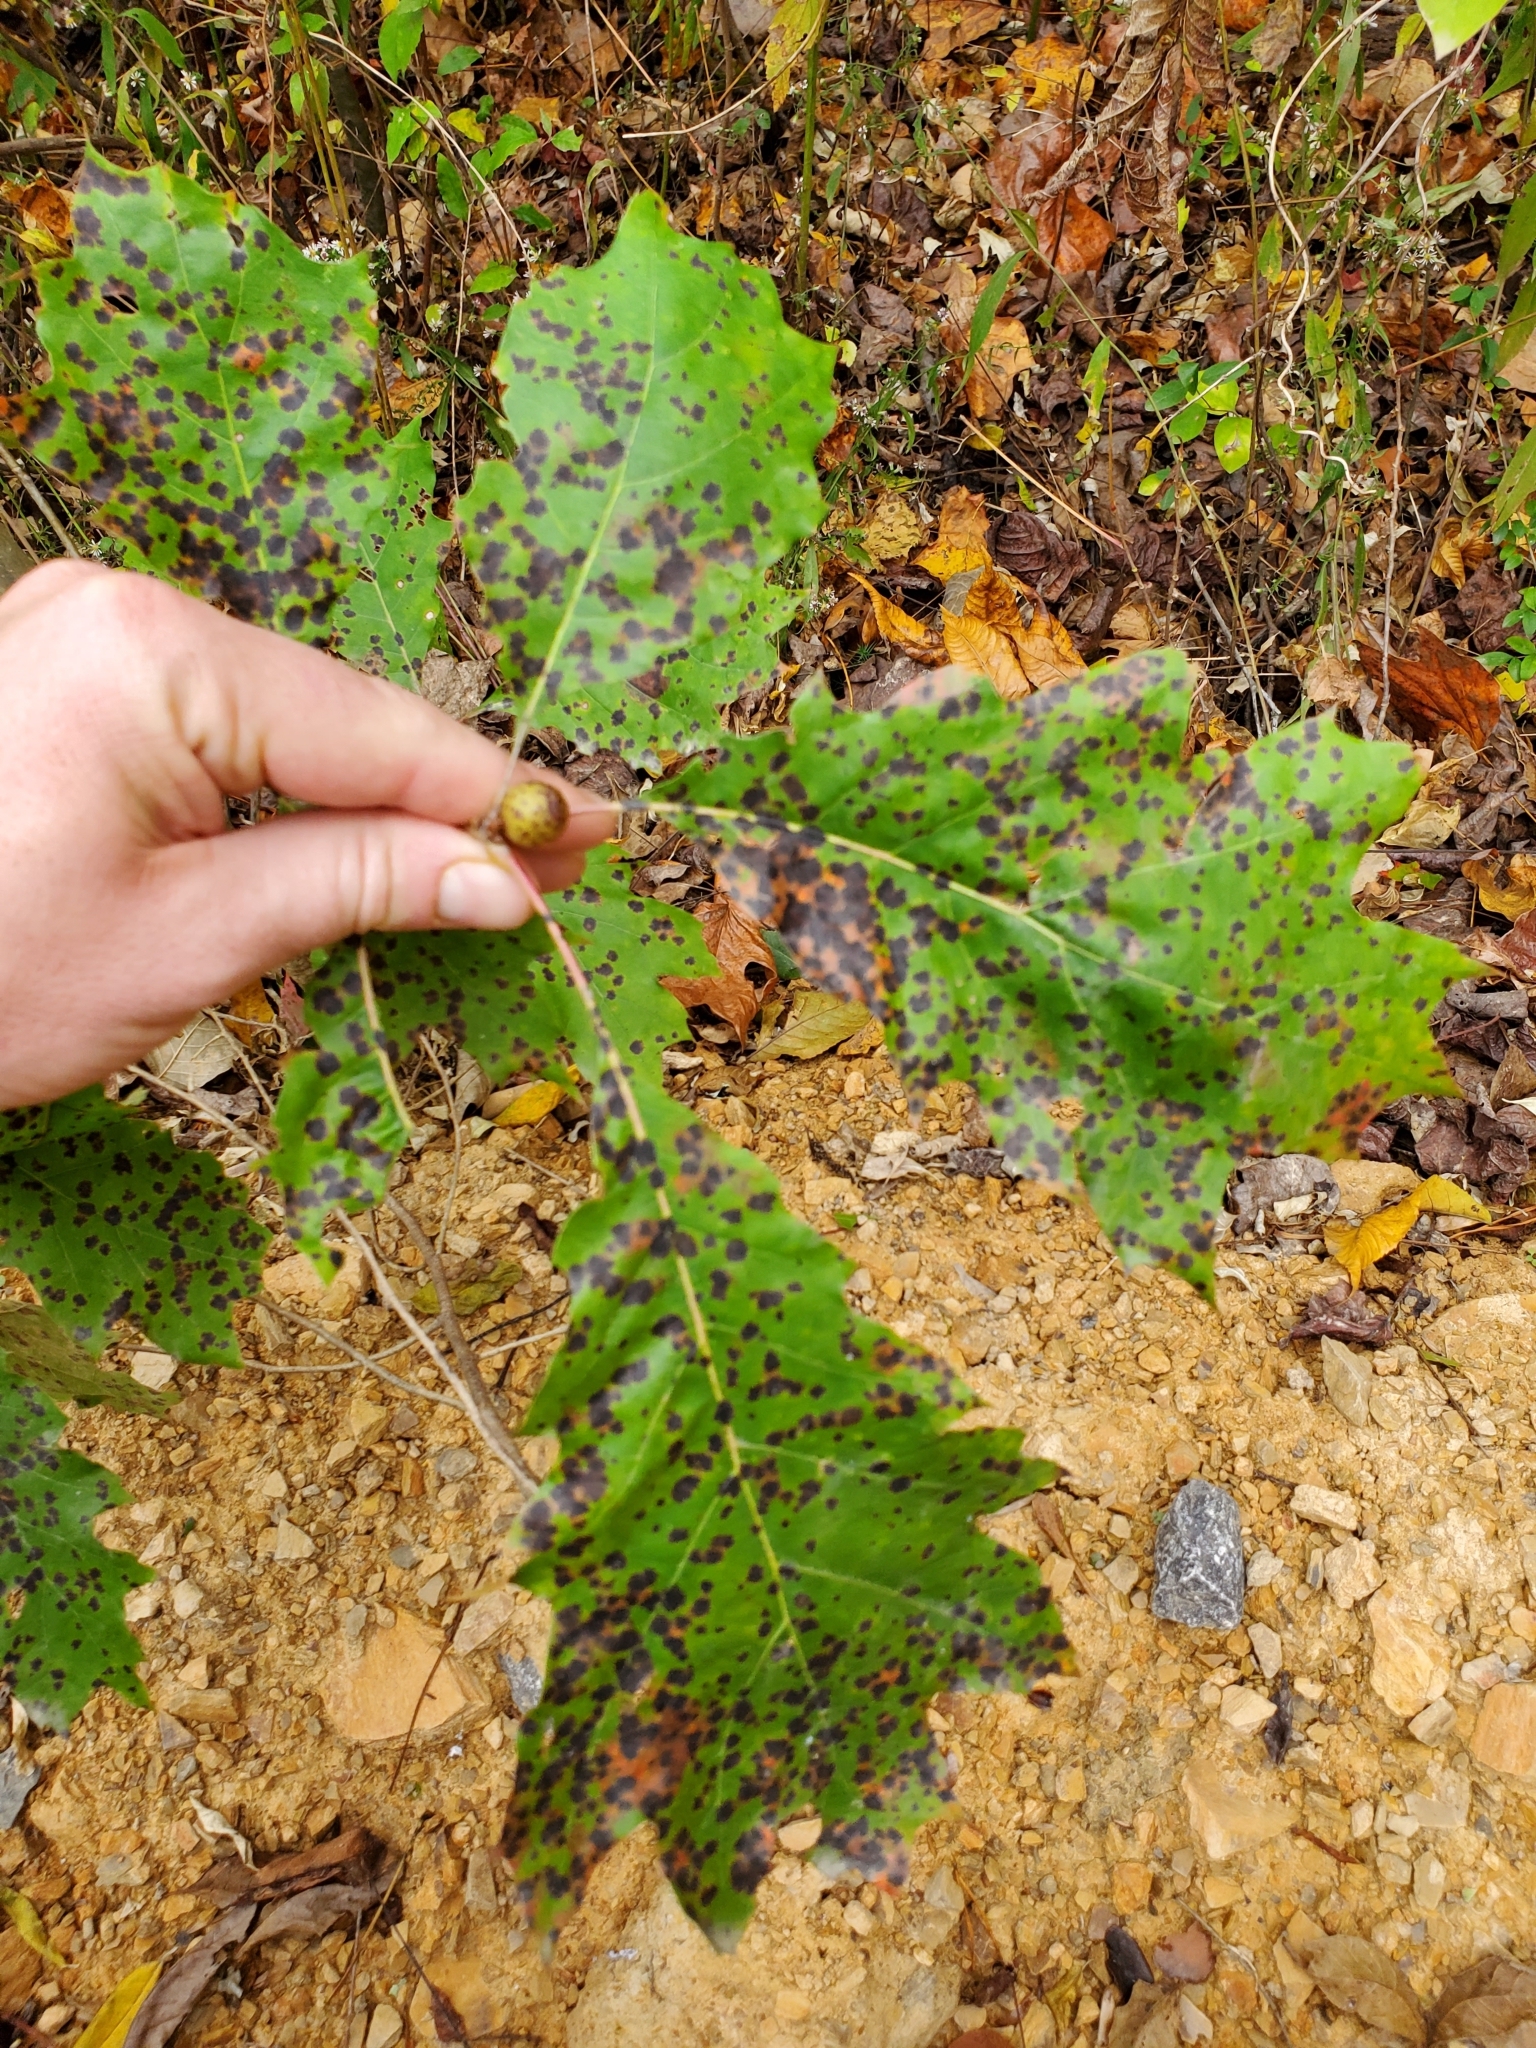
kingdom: Animalia
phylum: Arthropoda
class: Insecta
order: Hymenoptera
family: Cynipidae
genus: Amphibolips
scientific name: Amphibolips
